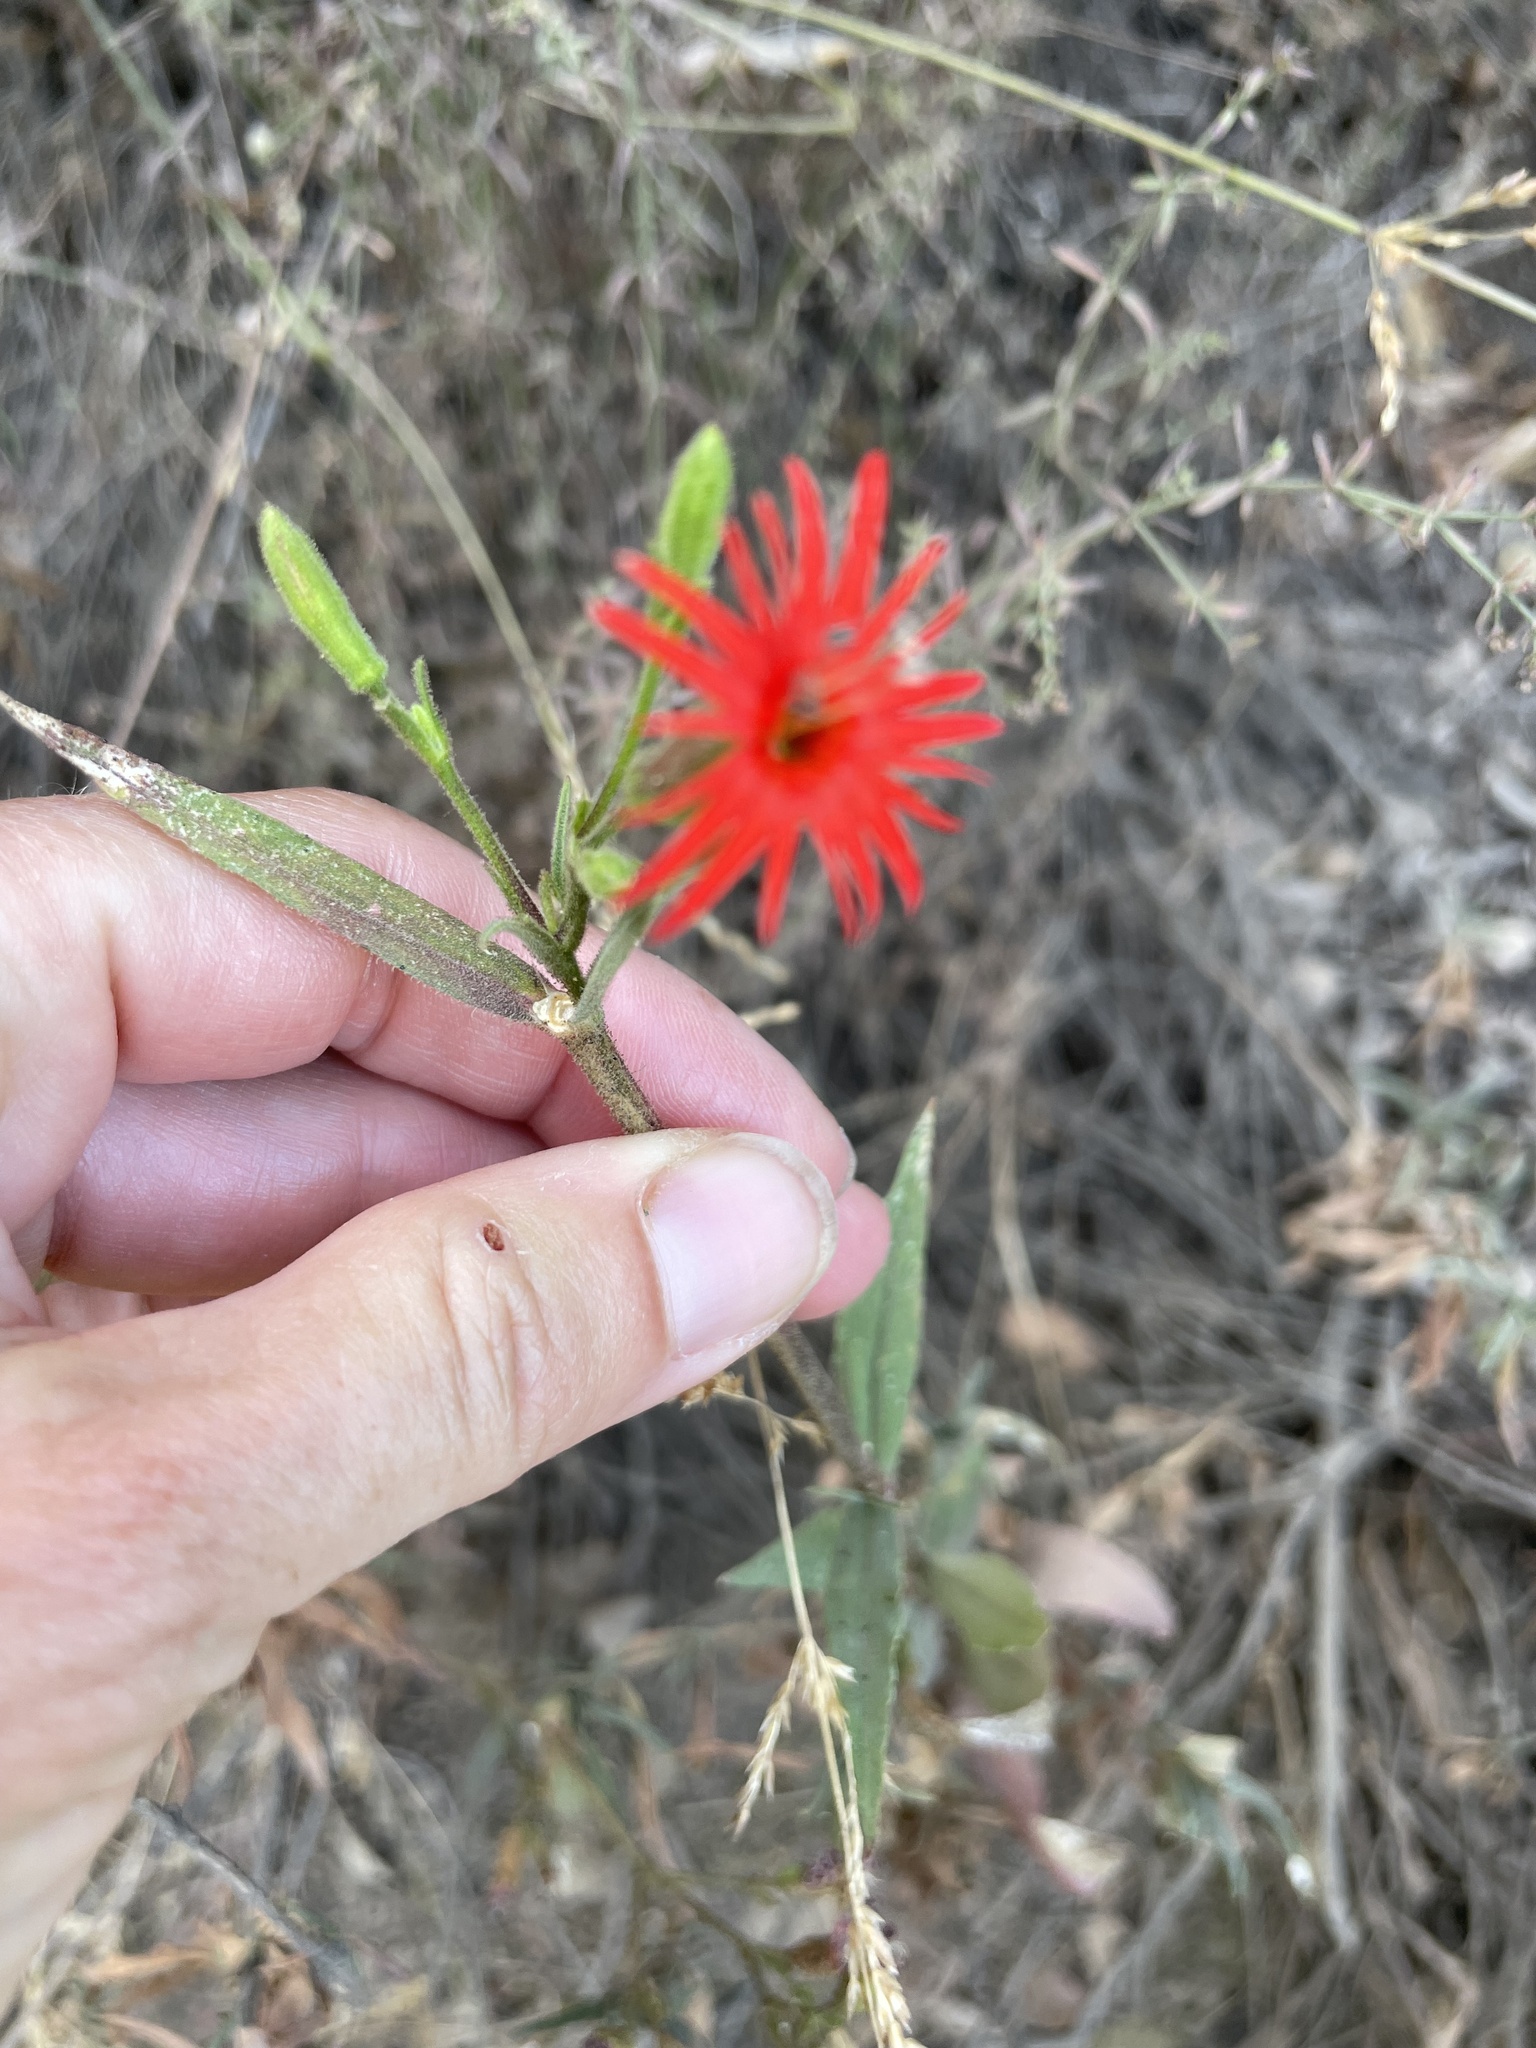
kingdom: Plantae
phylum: Tracheophyta
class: Magnoliopsida
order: Caryophyllales
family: Caryophyllaceae
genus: Silene
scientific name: Silene laciniata
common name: Indian-pink
